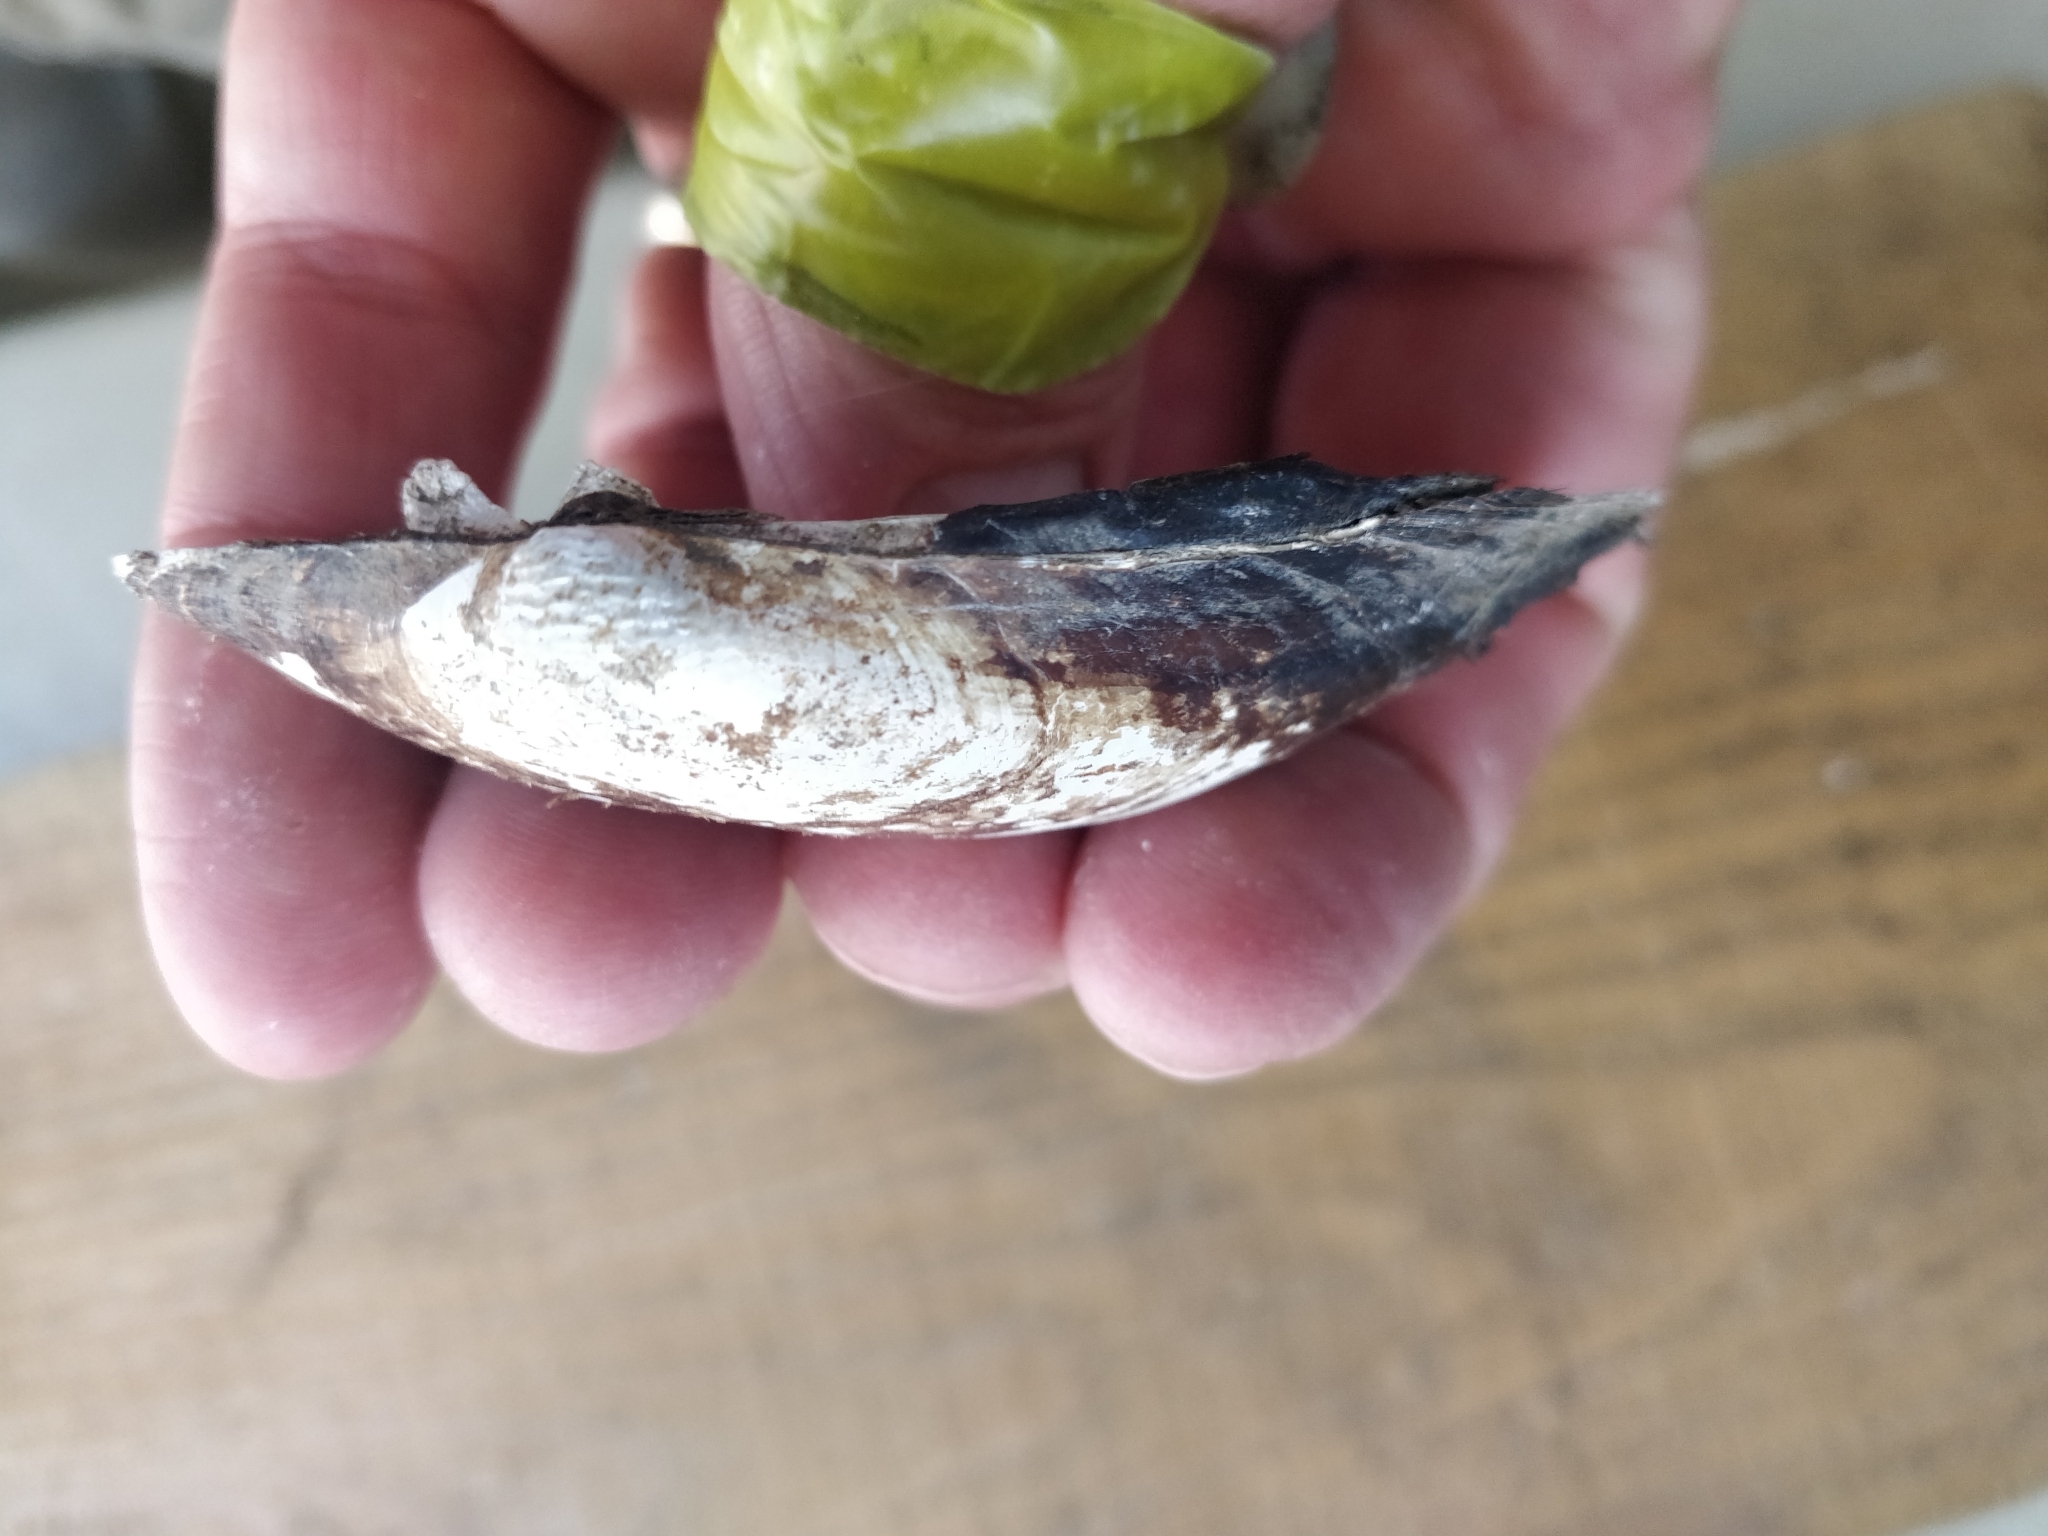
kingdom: Animalia
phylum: Mollusca
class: Bivalvia
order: Unionida
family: Unionidae
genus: Lampsilis
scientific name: Lampsilis siliquoidea
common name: Fatmucket
